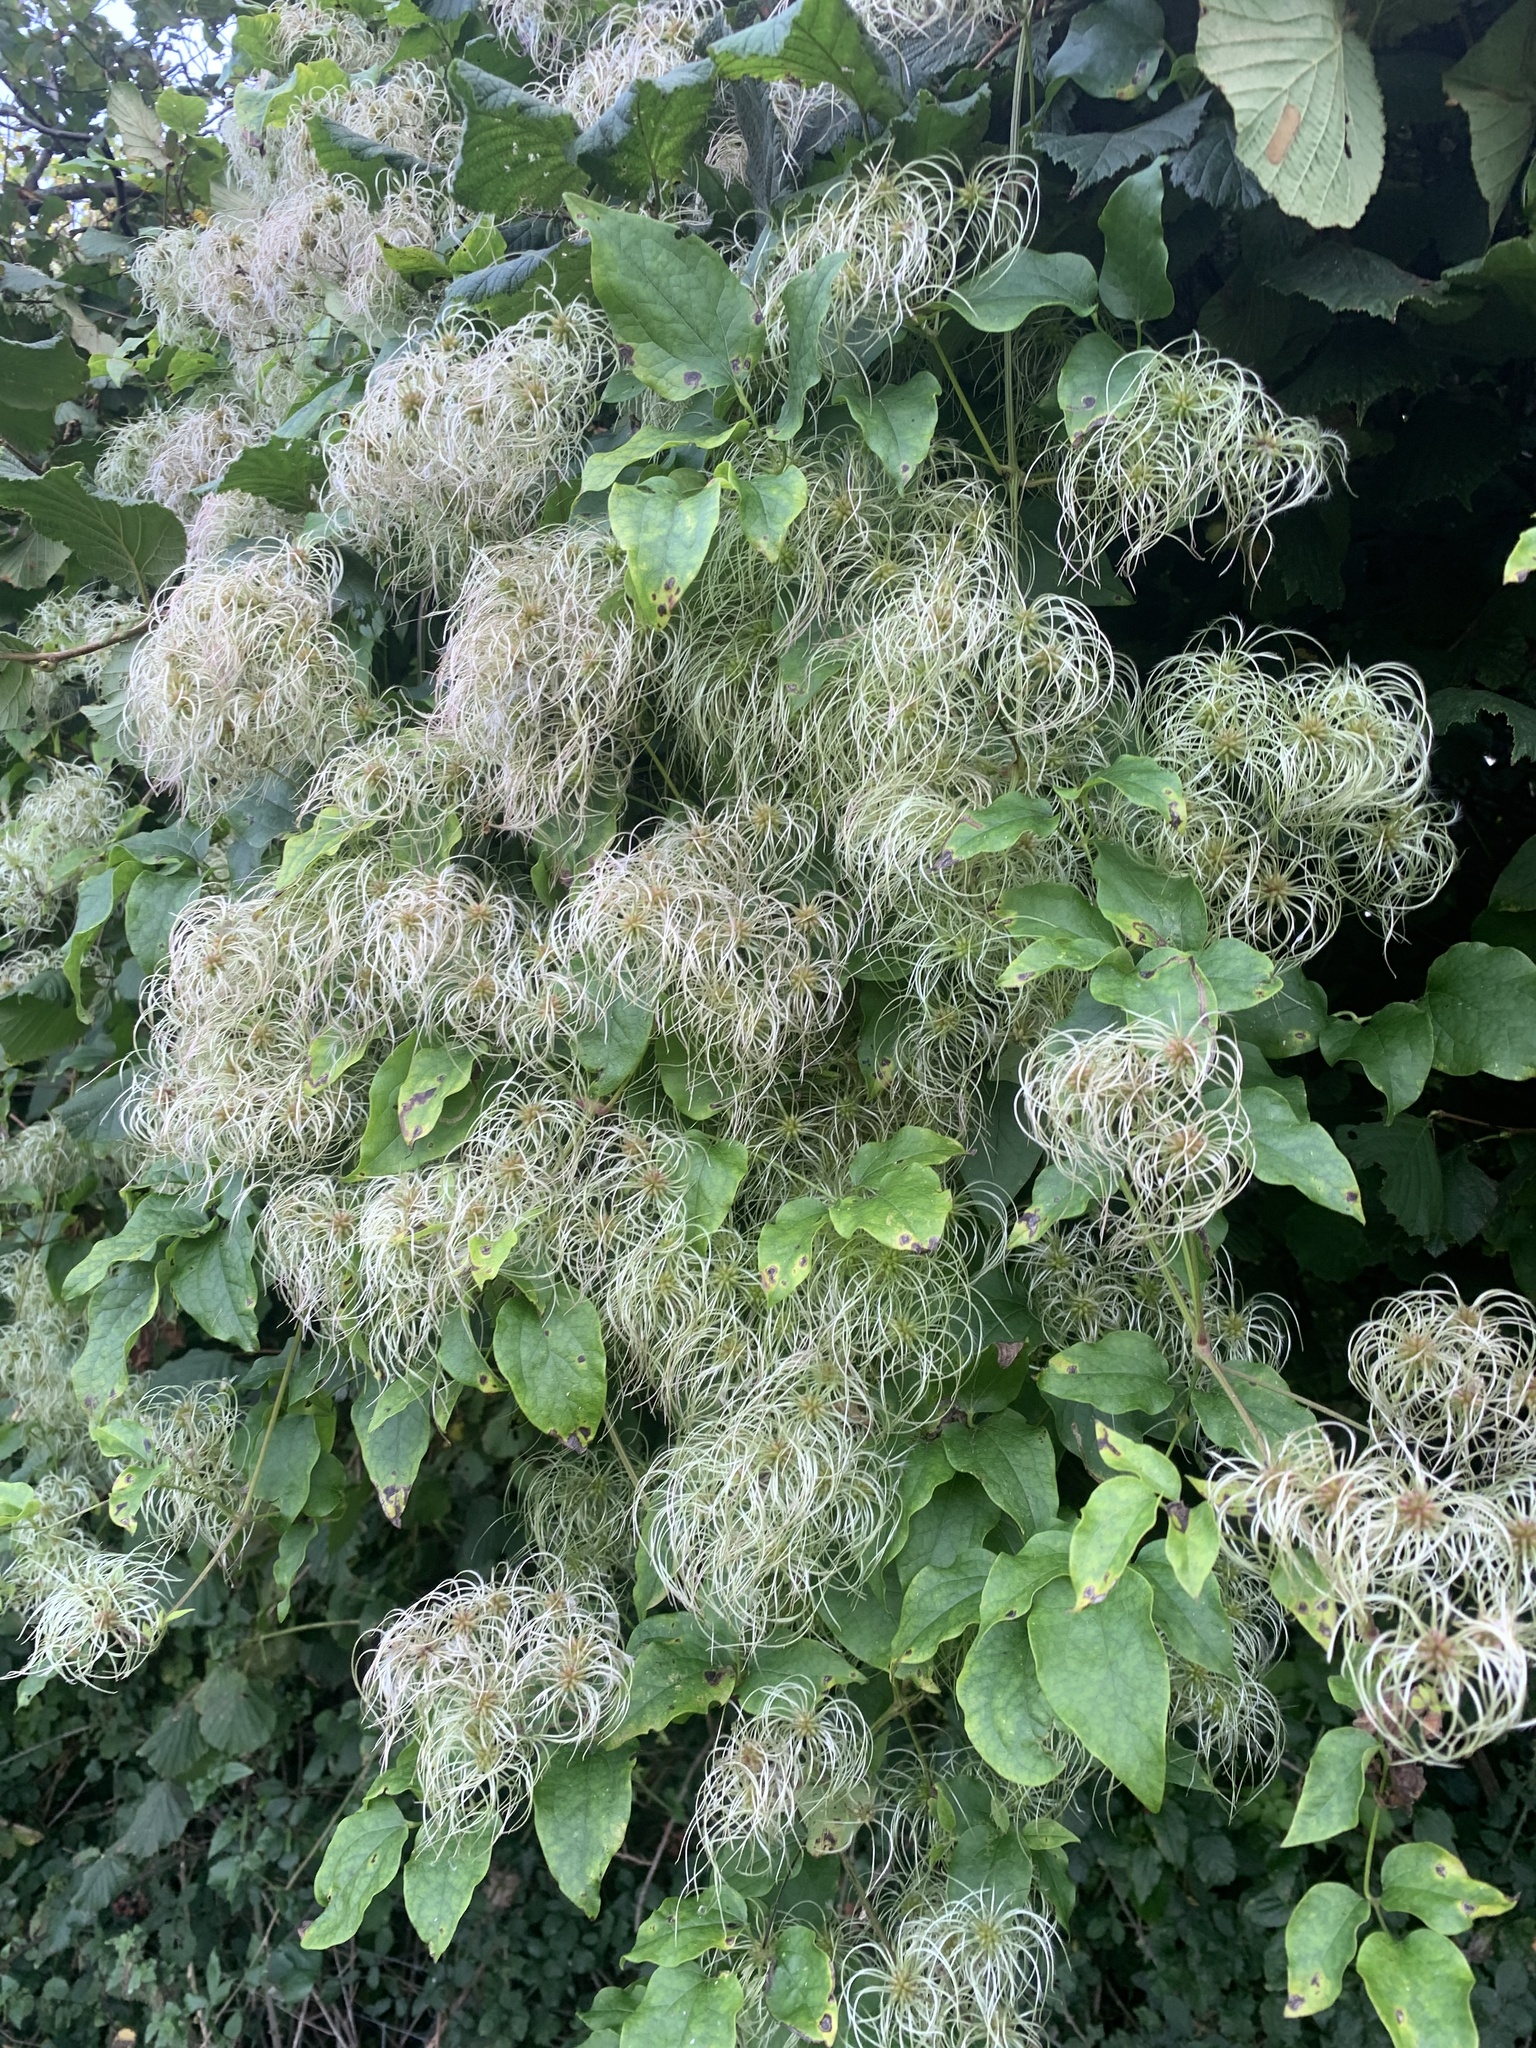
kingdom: Plantae
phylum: Tracheophyta
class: Magnoliopsida
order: Ranunculales
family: Ranunculaceae
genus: Clematis
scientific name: Clematis vitalba
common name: Evergreen clematis
